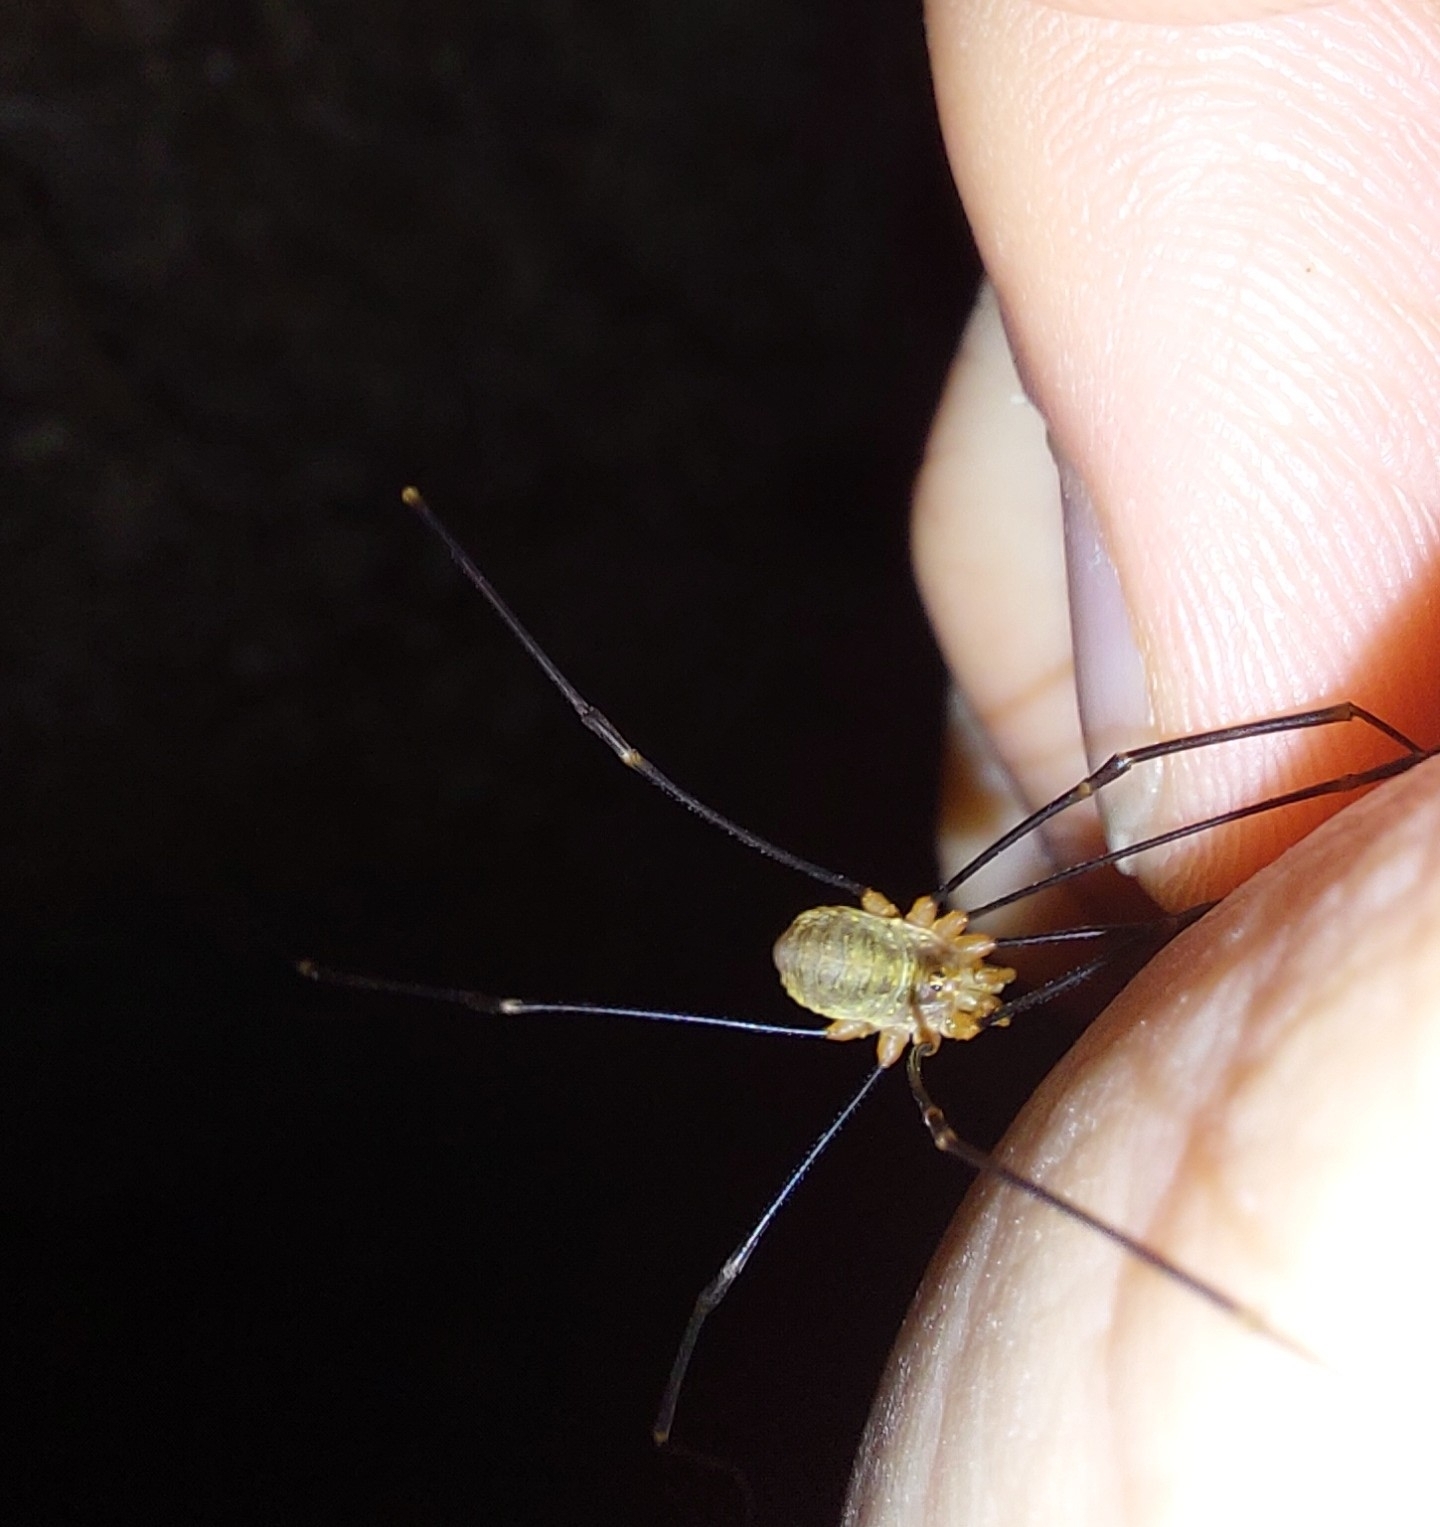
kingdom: Animalia
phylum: Arthropoda
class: Arachnida
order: Opiliones
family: Phalangiidae
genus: Dicranopalpus
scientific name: Dicranopalpus ramosus
